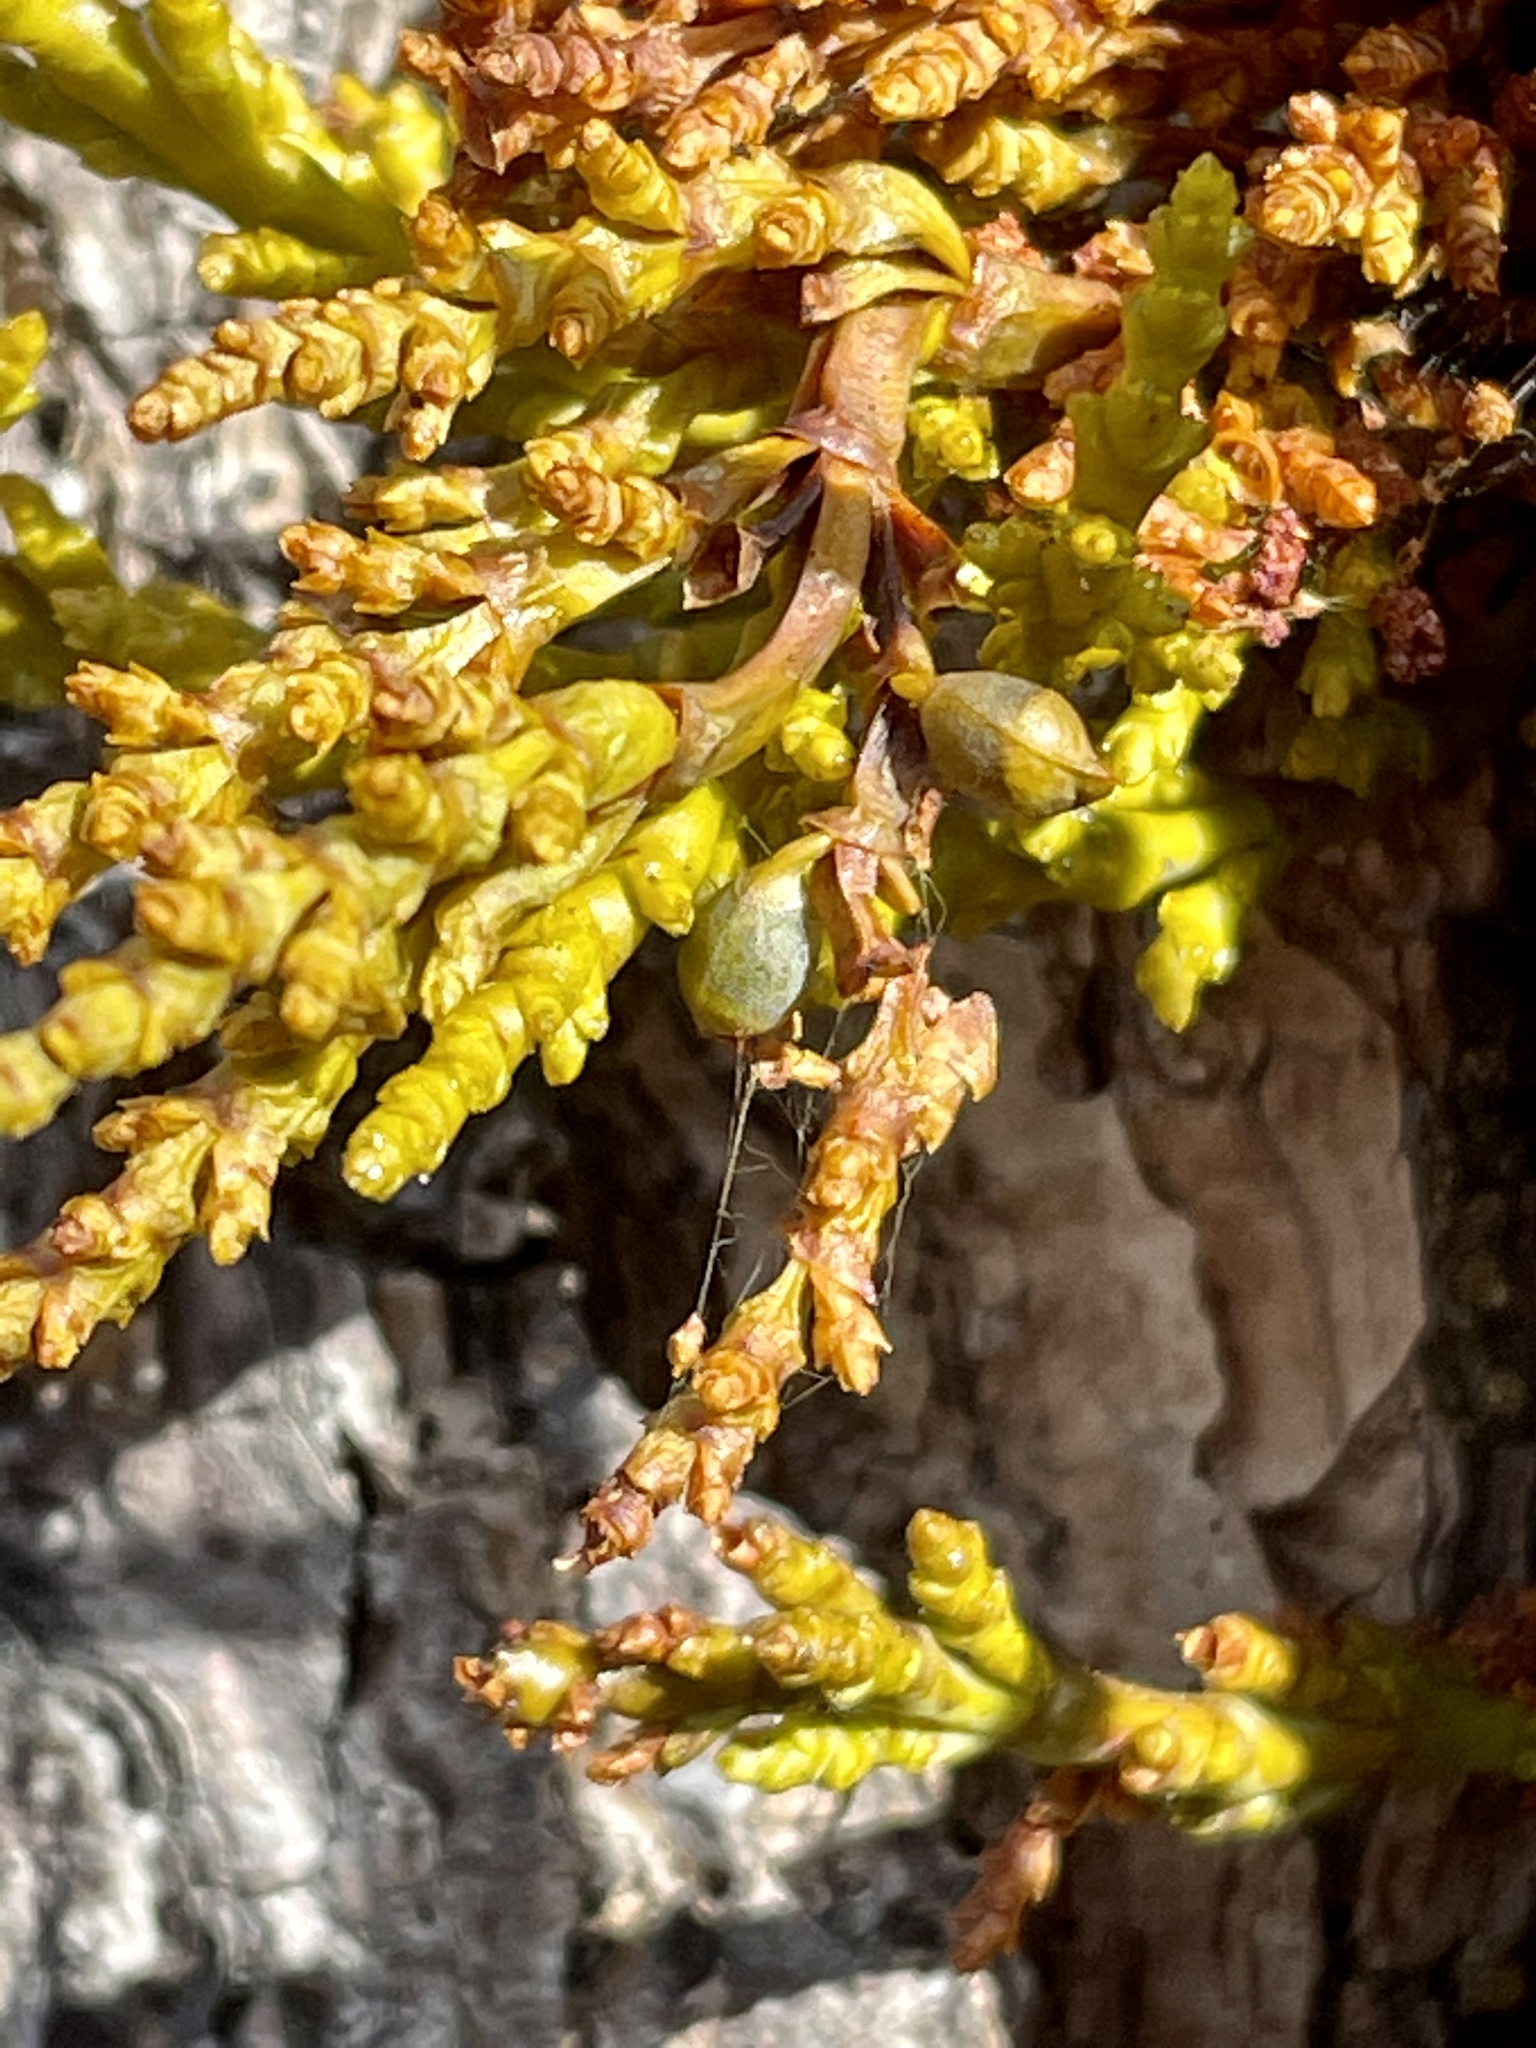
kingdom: Plantae
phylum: Tracheophyta
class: Magnoliopsida
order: Santalales
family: Viscaceae
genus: Arceuthobium
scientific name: Arceuthobium campylopodum
